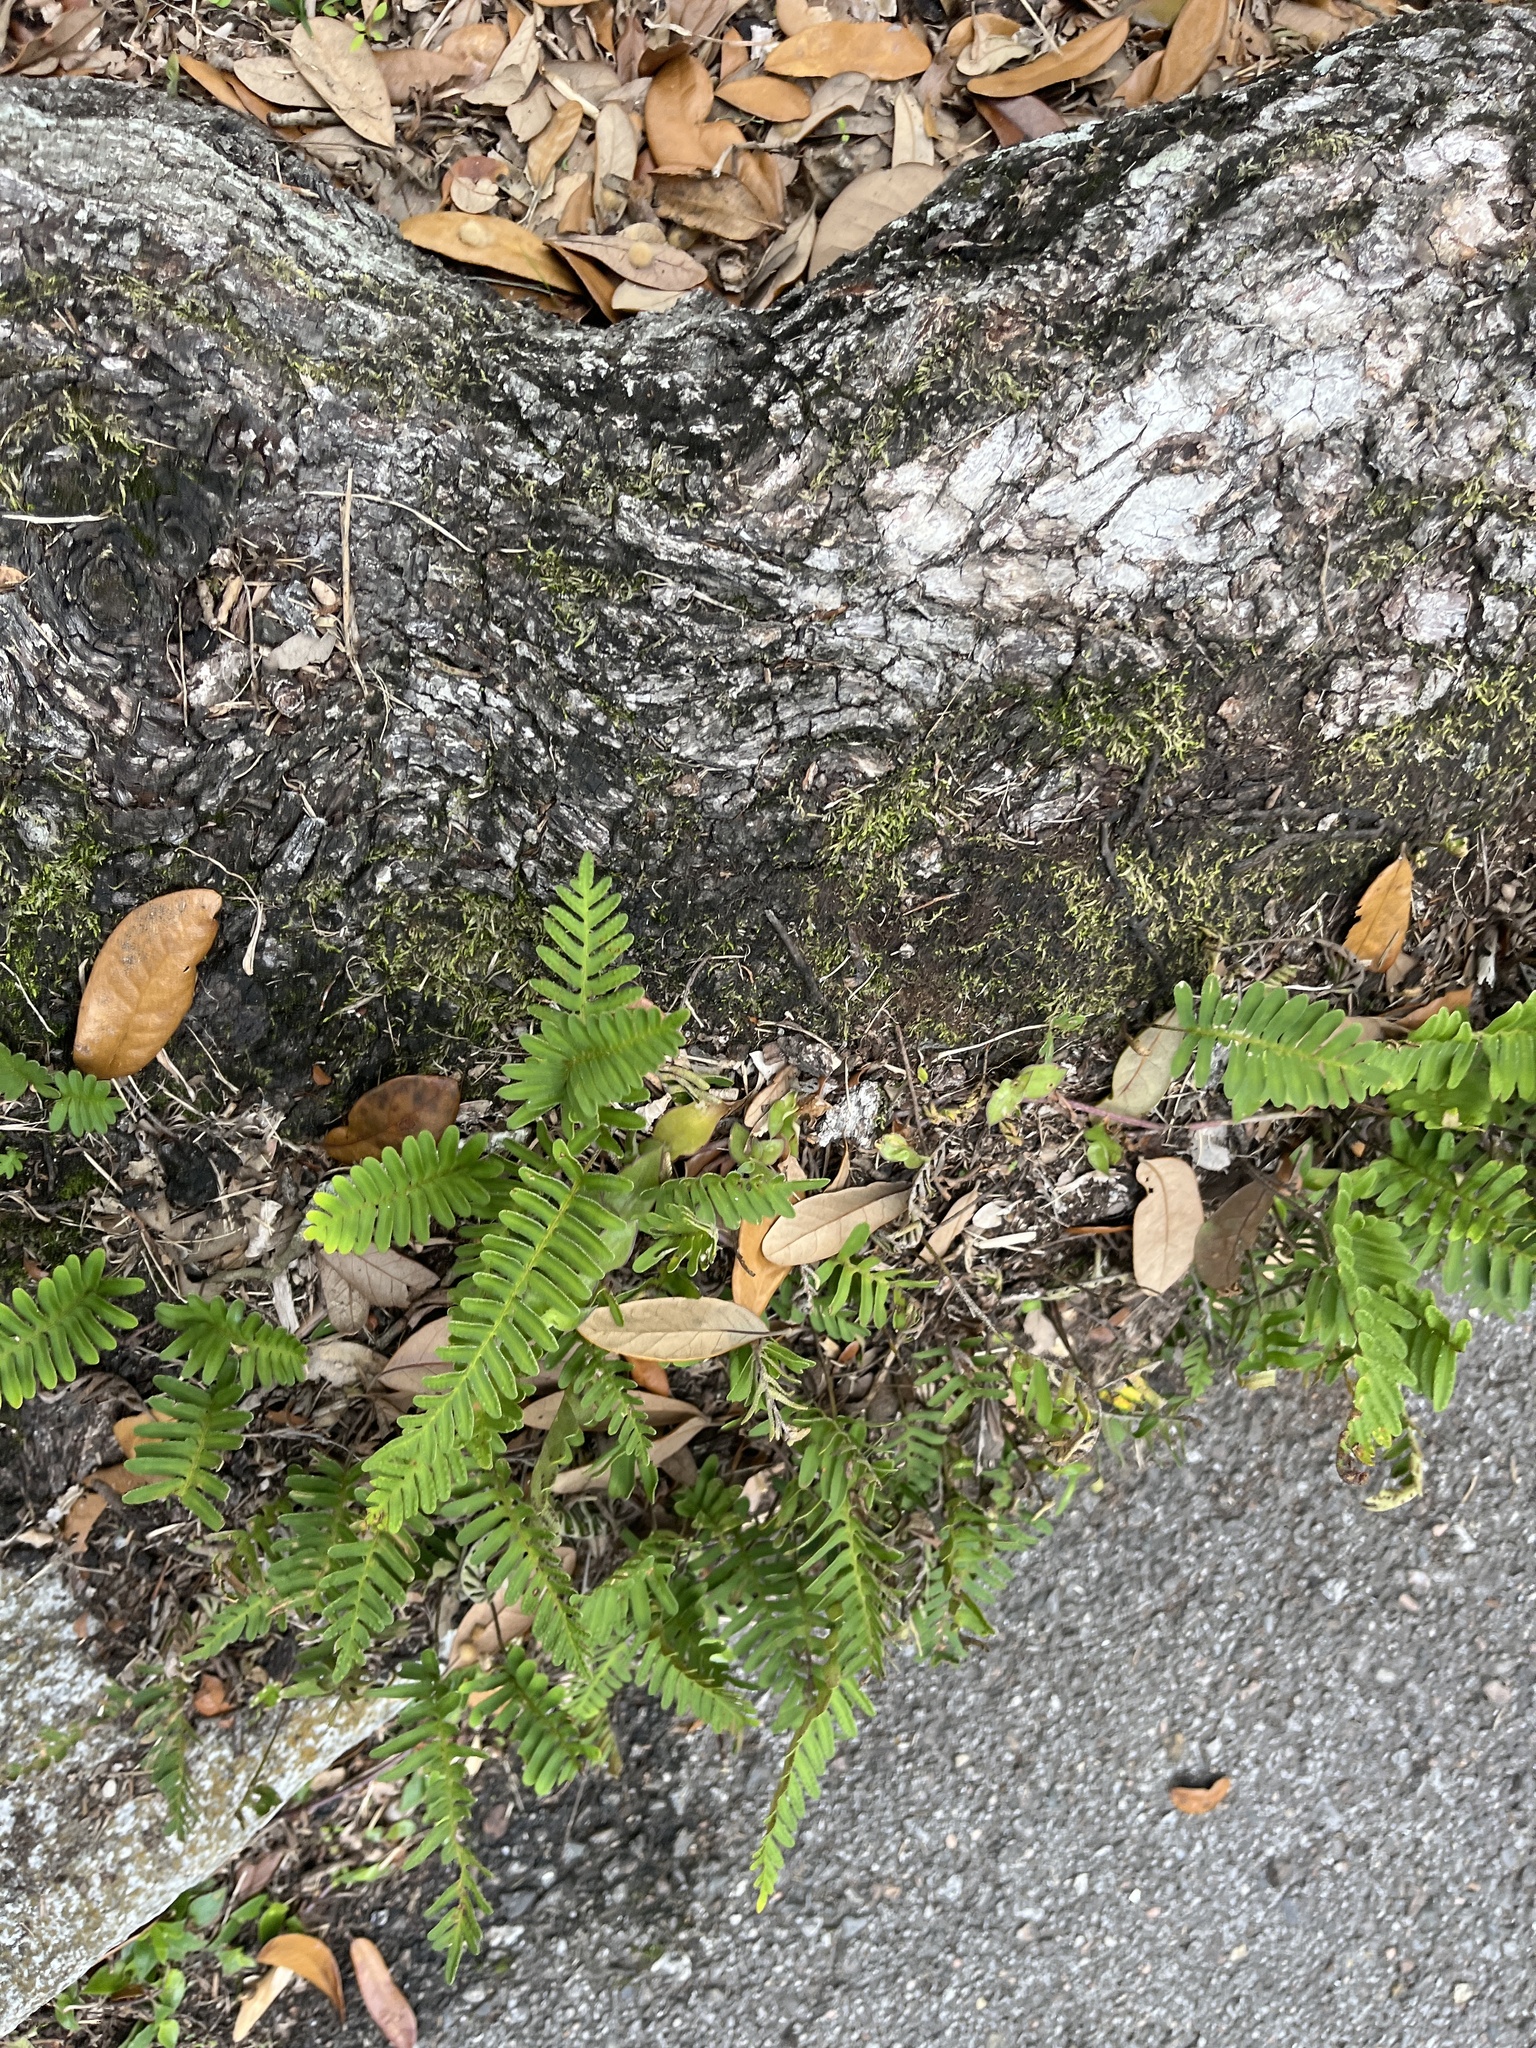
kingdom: Plantae
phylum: Tracheophyta
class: Polypodiopsida
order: Polypodiales
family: Polypodiaceae
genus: Pleopeltis
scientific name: Pleopeltis michauxiana
